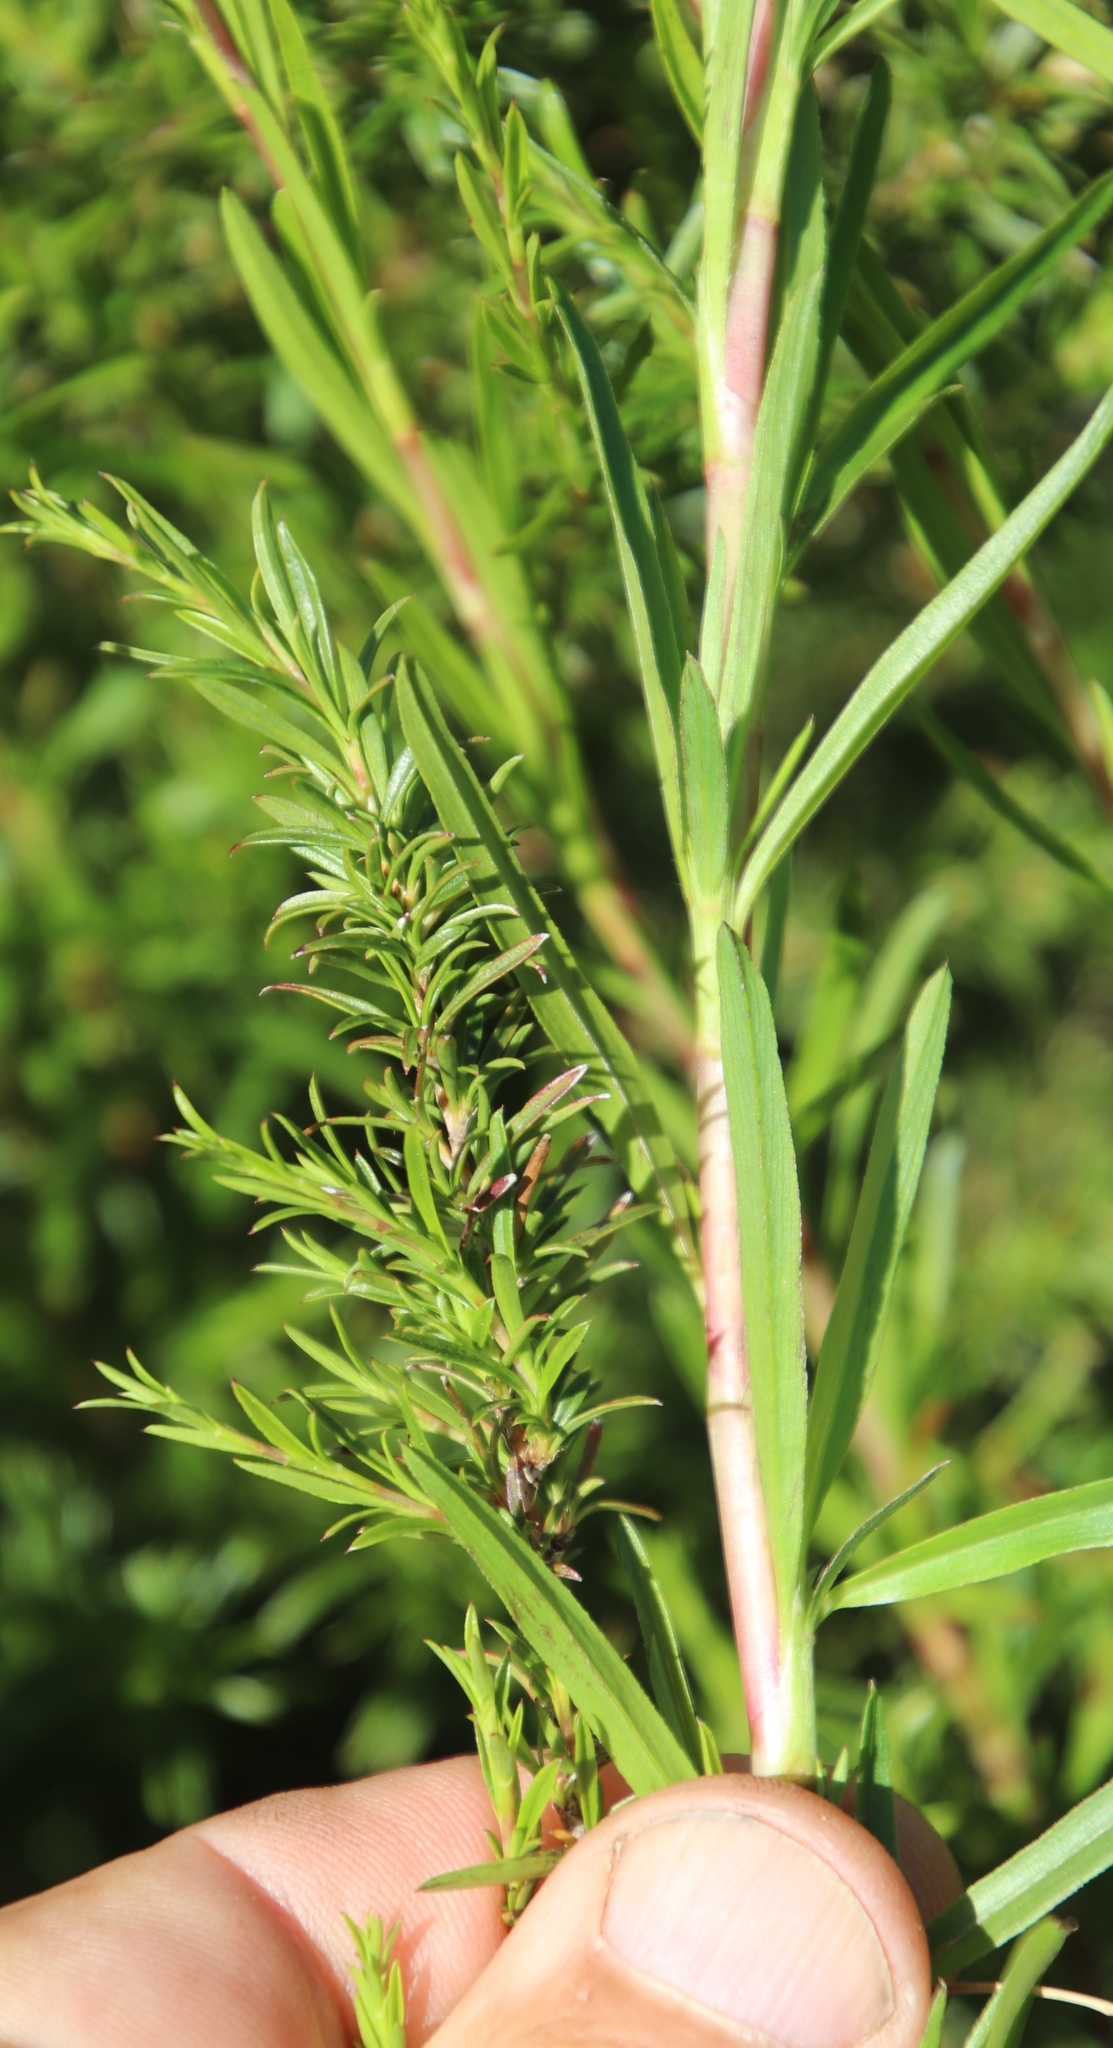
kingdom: Plantae
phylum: Tracheophyta
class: Magnoliopsida
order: Rosales
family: Rosaceae
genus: Cliffortia
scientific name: Cliffortia strobilifera
